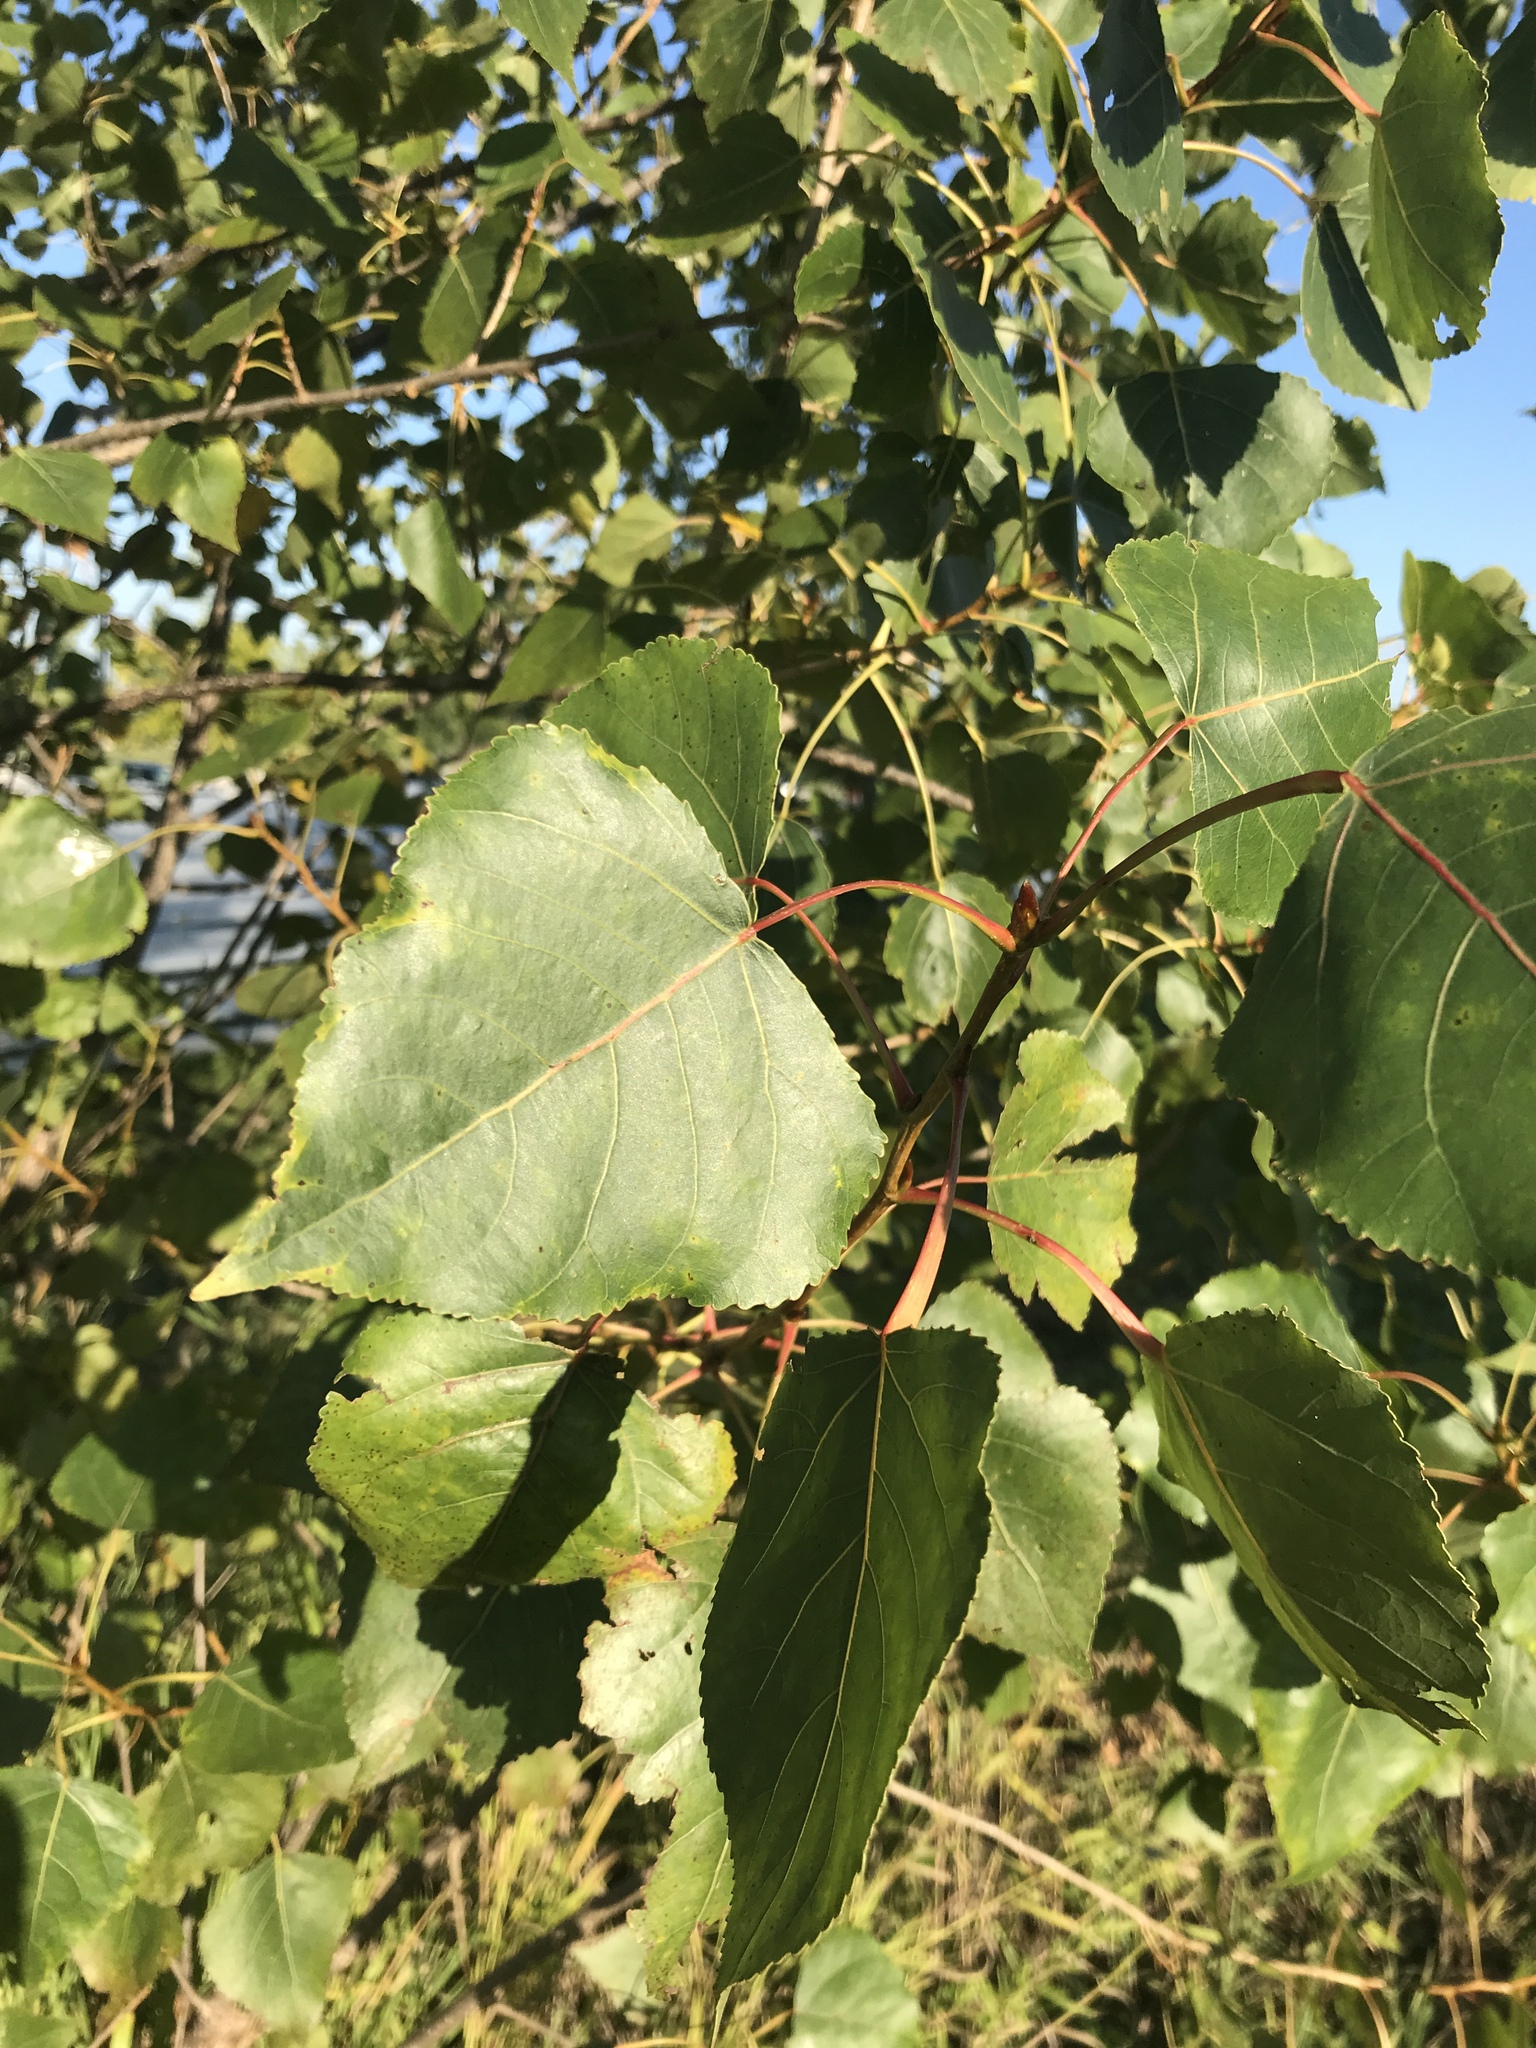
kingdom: Plantae
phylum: Tracheophyta
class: Magnoliopsida
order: Malpighiales
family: Salicaceae
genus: Populus
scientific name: Populus deltoides
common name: Eastern cottonwood
